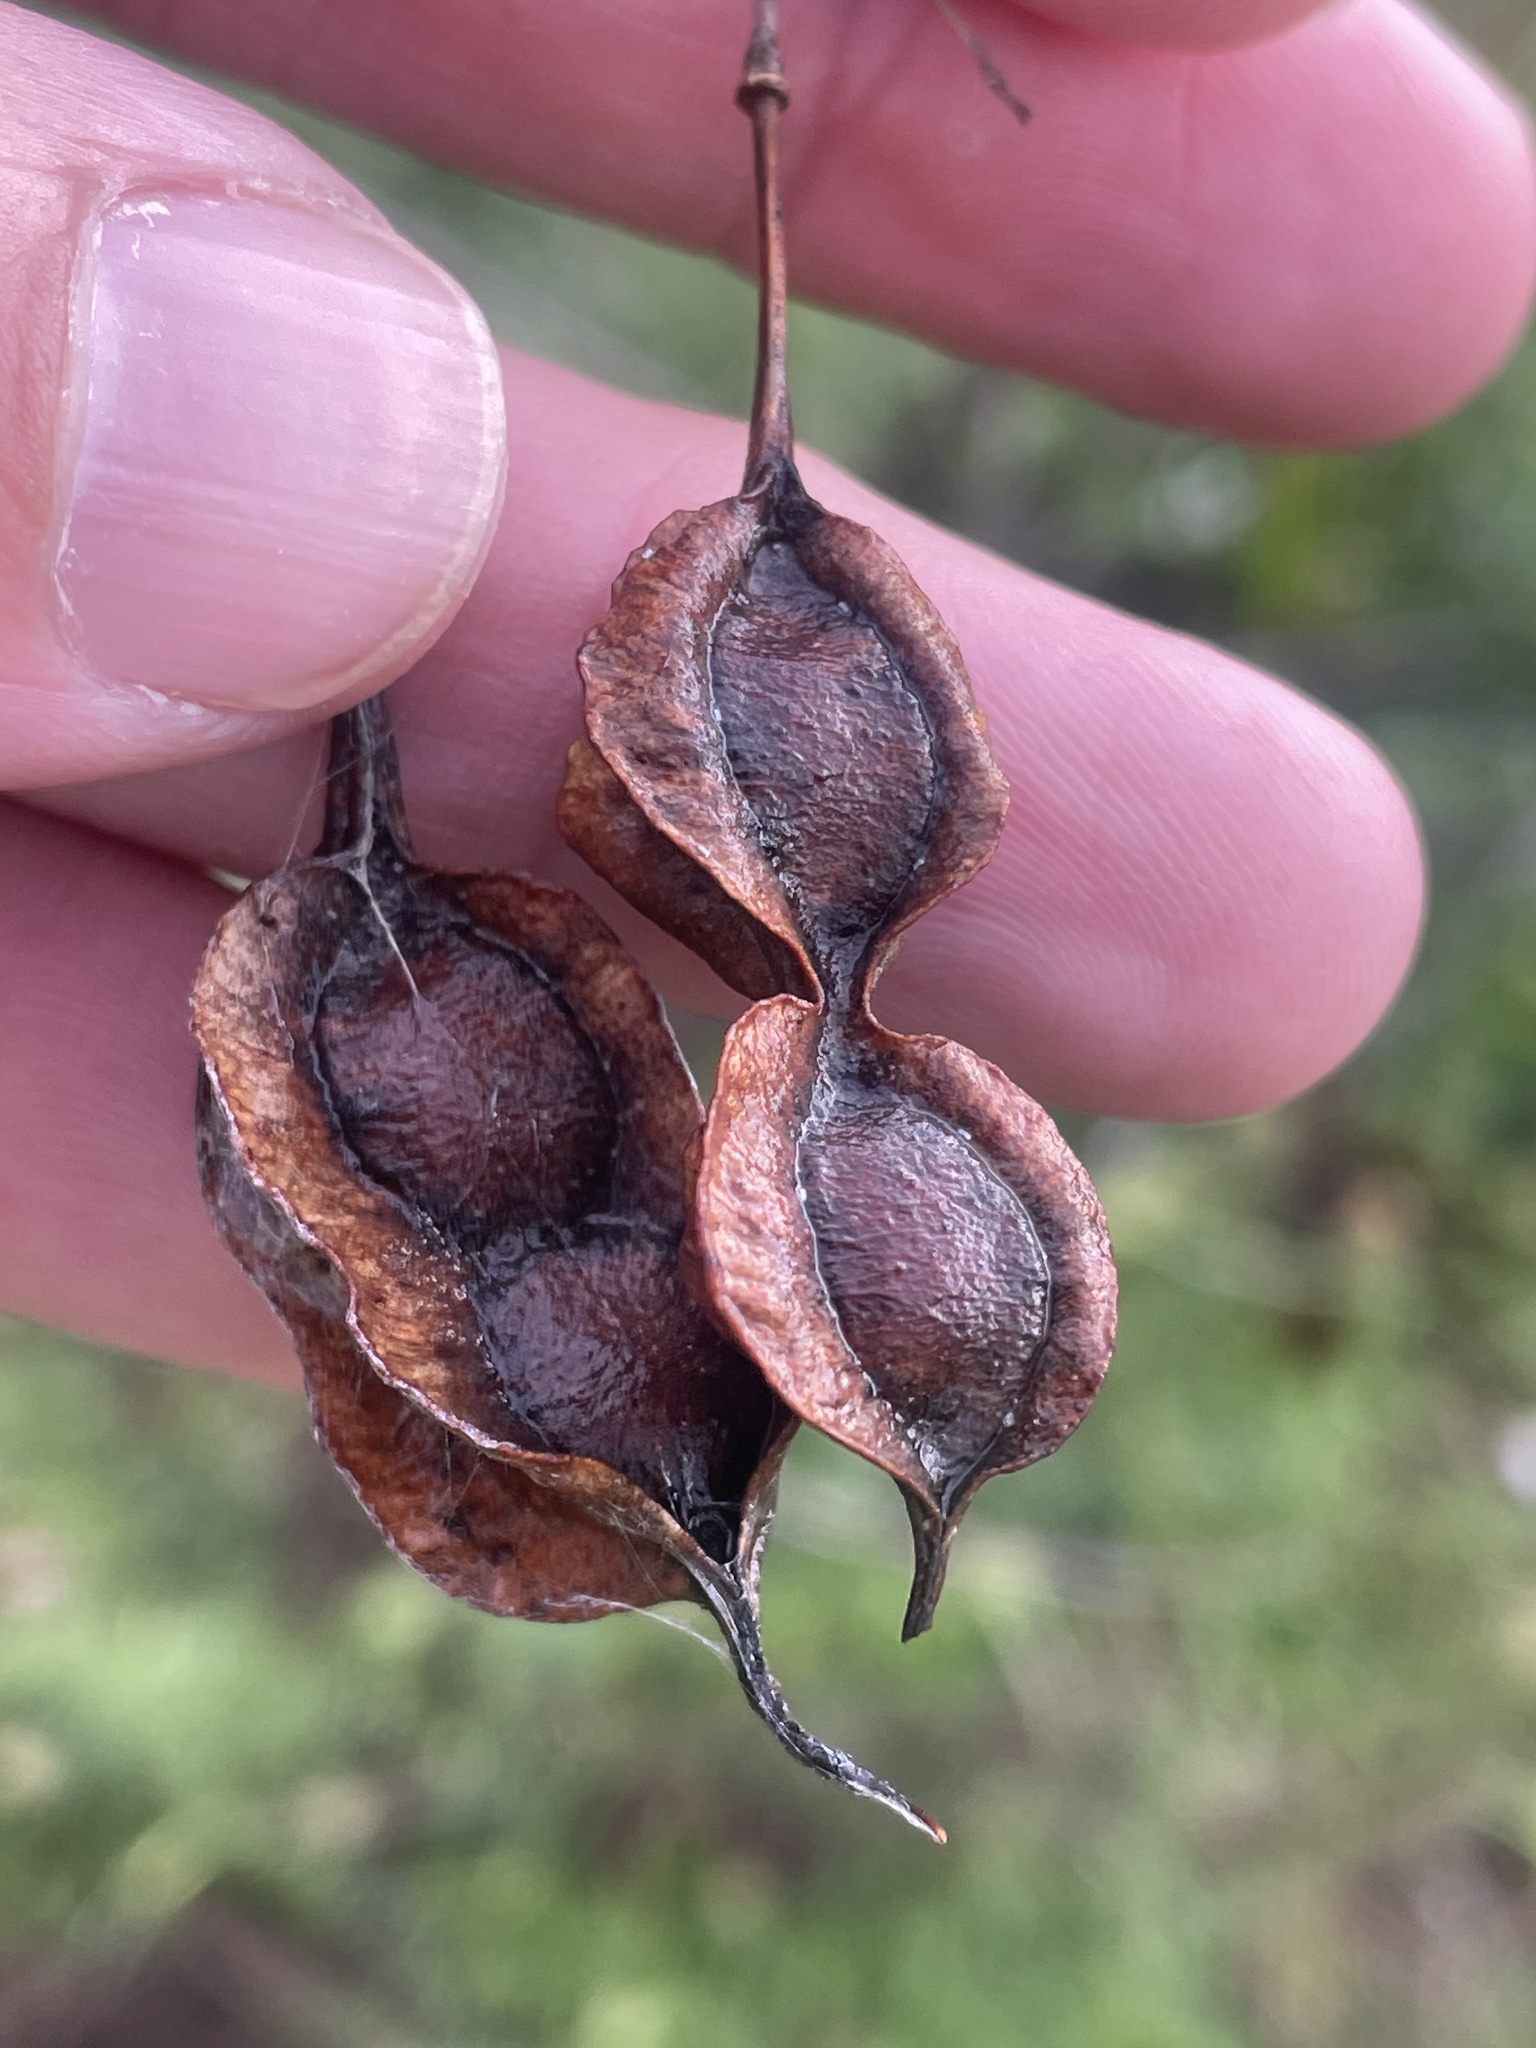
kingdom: Plantae
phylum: Tracheophyta
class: Magnoliopsida
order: Fabales
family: Fabaceae
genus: Sesbania
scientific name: Sesbania drummondii
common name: Poison-bean
